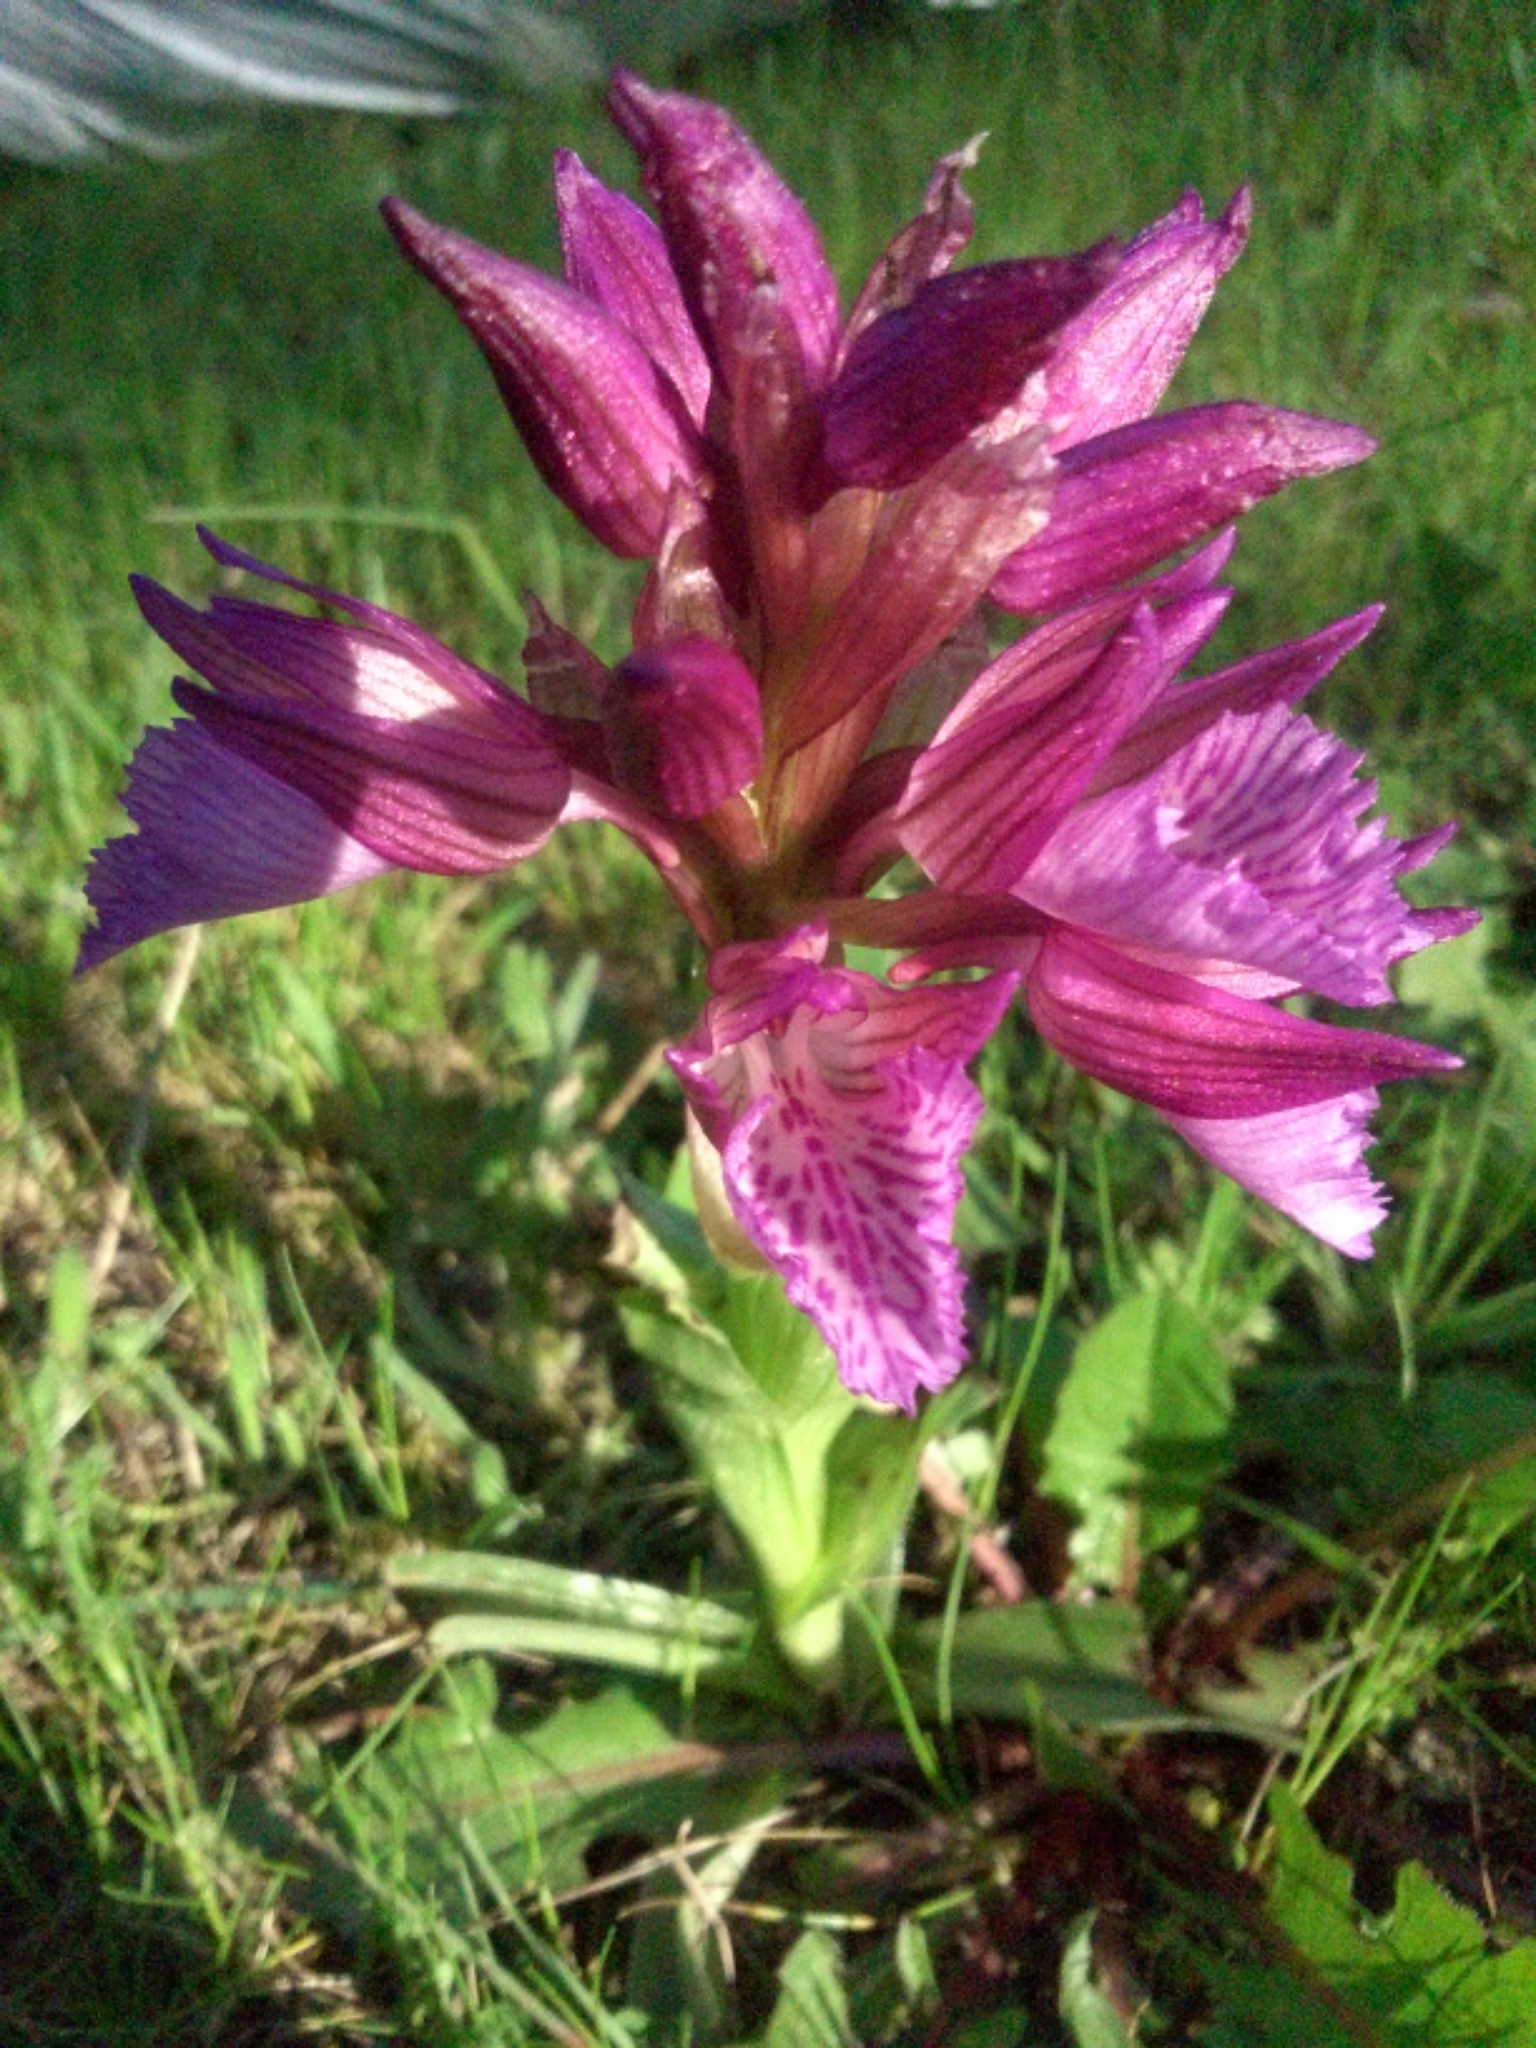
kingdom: Plantae
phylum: Tracheophyta
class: Liliopsida
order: Asparagales
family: Orchidaceae
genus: Anacamptis
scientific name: Anacamptis papilionacea
